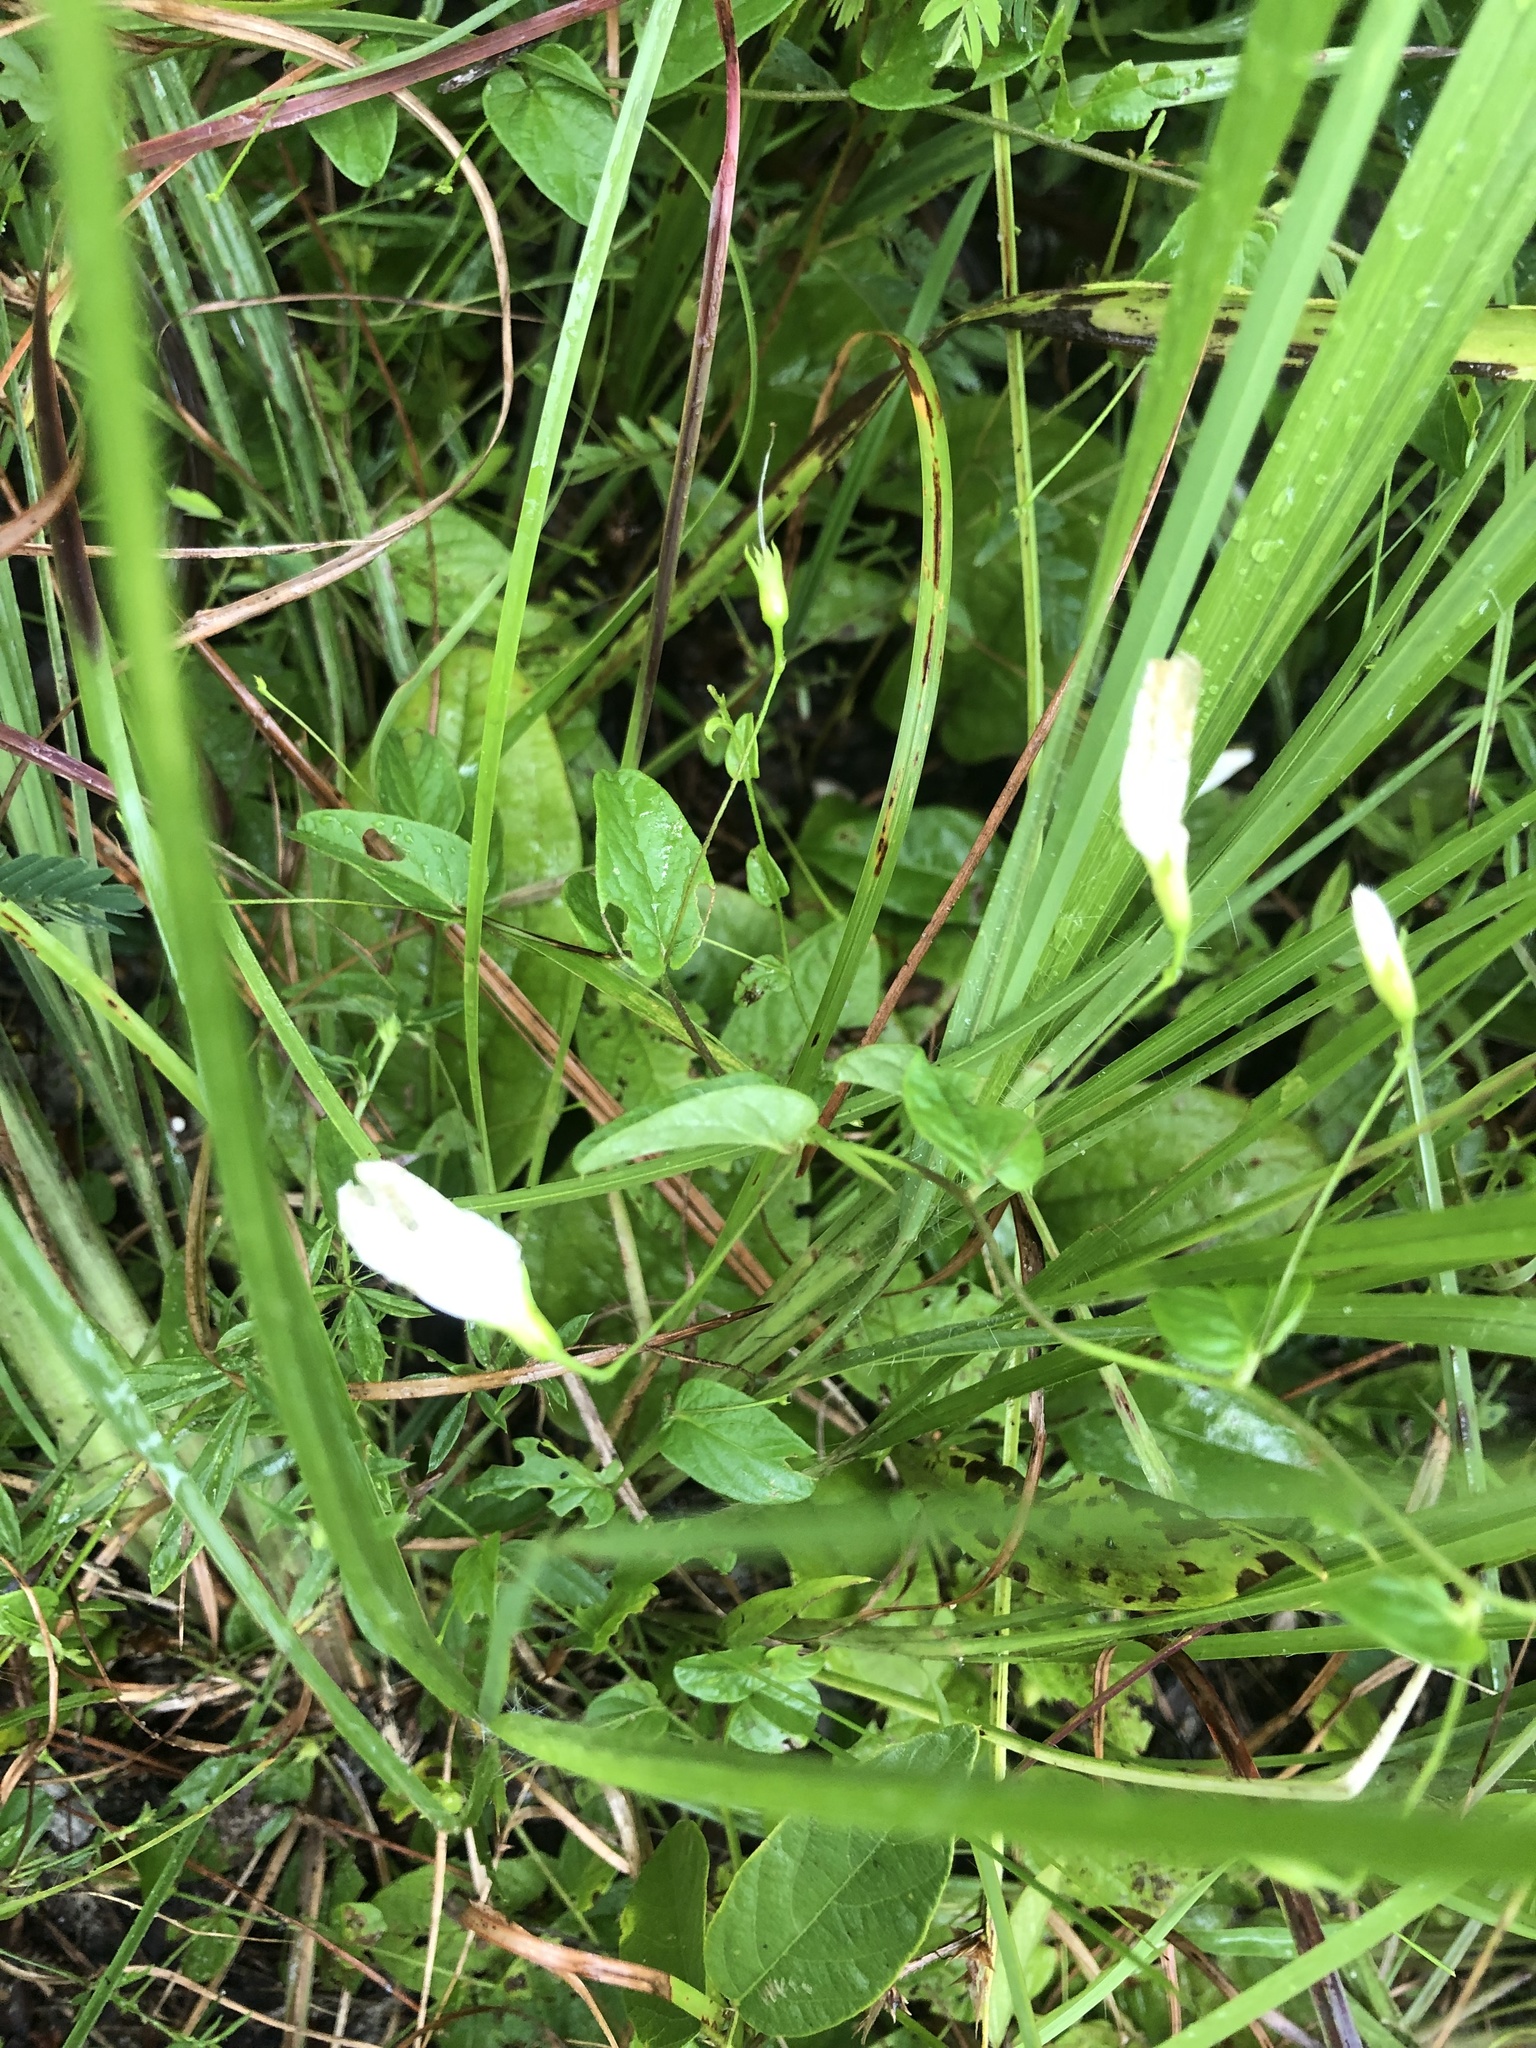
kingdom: Plantae
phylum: Tracheophyta
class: Magnoliopsida
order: Solanales
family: Convolvulaceae
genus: Stylisma
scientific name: Stylisma humistrata
